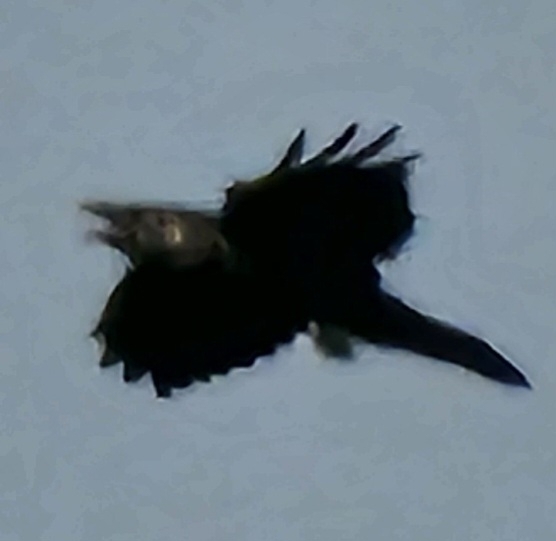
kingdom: Animalia
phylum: Chordata
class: Aves
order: Passeriformes
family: Corvidae
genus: Corvus
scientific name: Corvus corax
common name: Common raven
